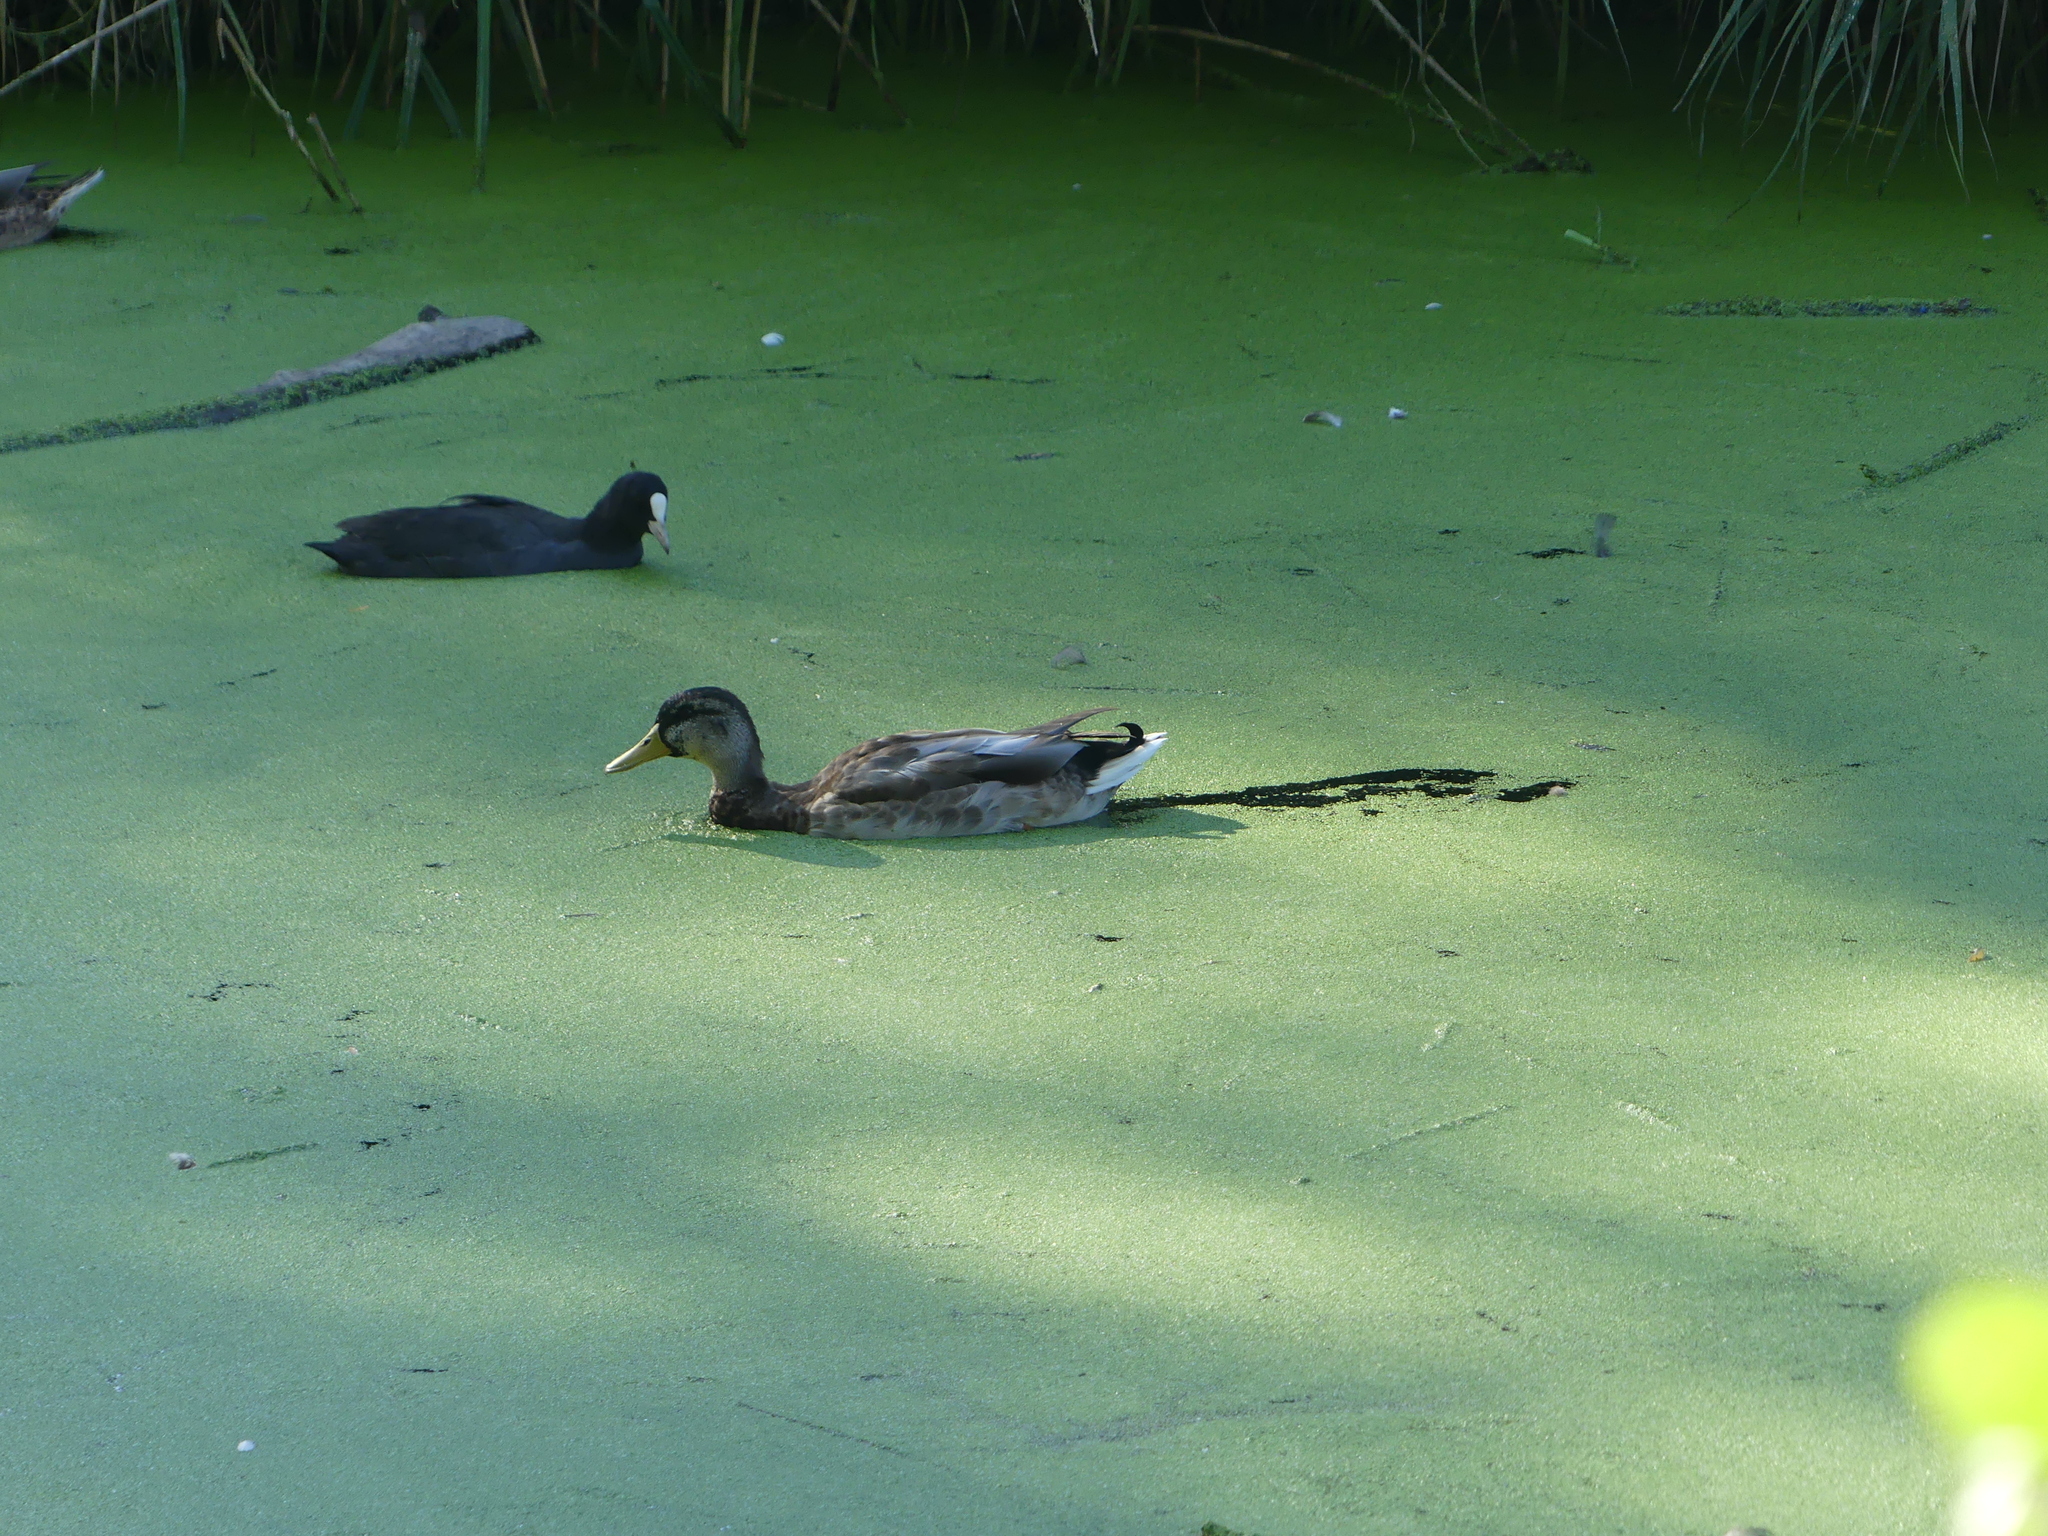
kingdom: Animalia
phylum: Chordata
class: Aves
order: Anseriformes
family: Anatidae
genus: Anas
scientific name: Anas platyrhynchos
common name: Mallard
